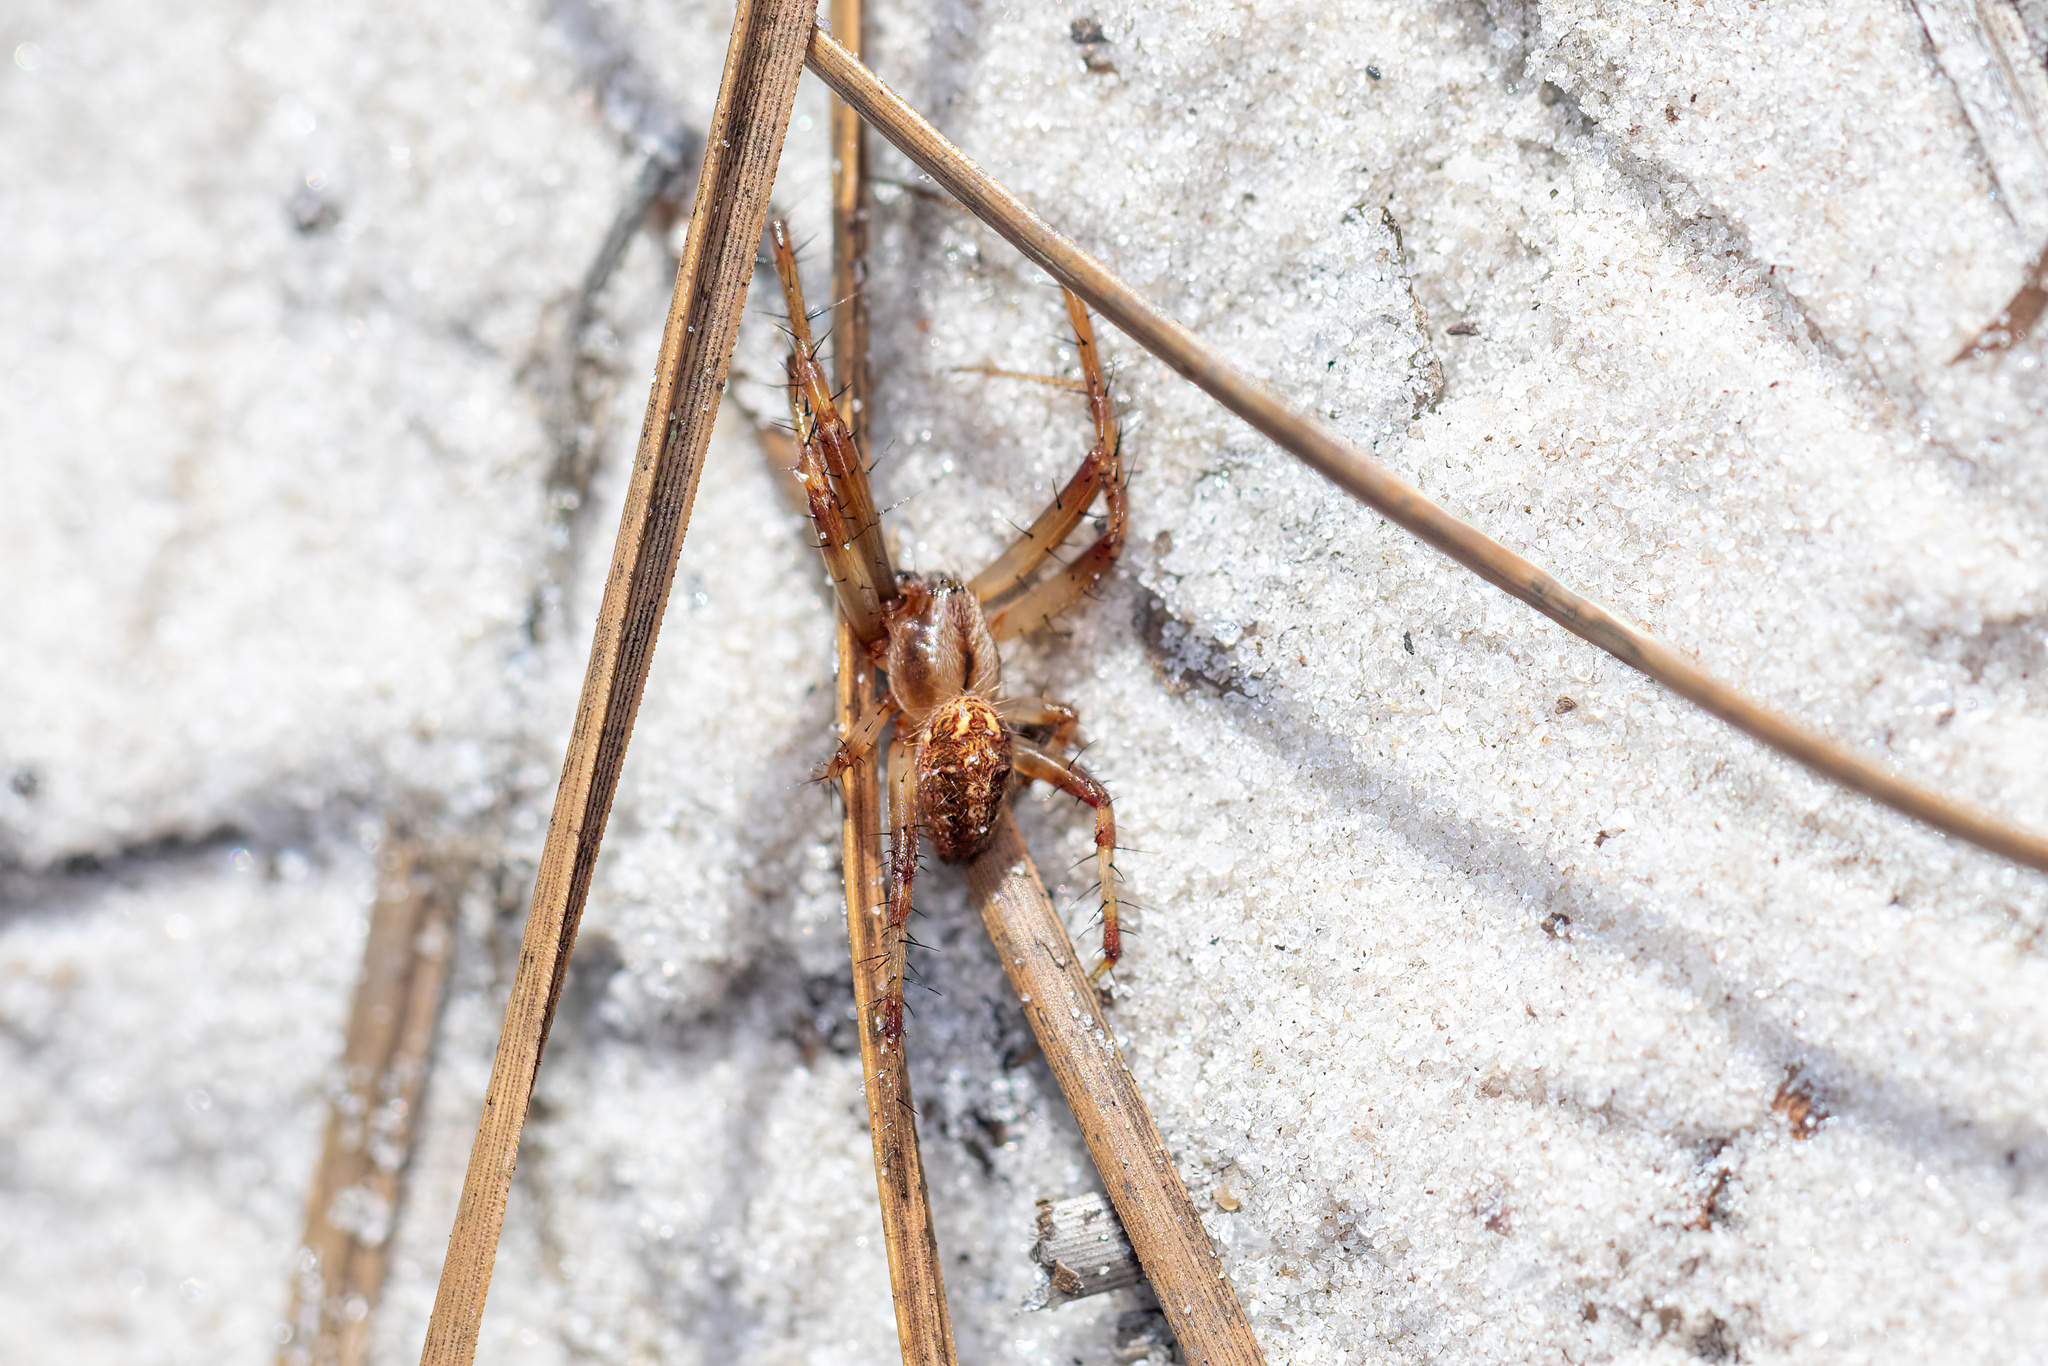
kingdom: Animalia
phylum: Arthropoda
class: Arachnida
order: Araneae
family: Araneidae
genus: Neoscona
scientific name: Neoscona arabesca
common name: Orb weavers
